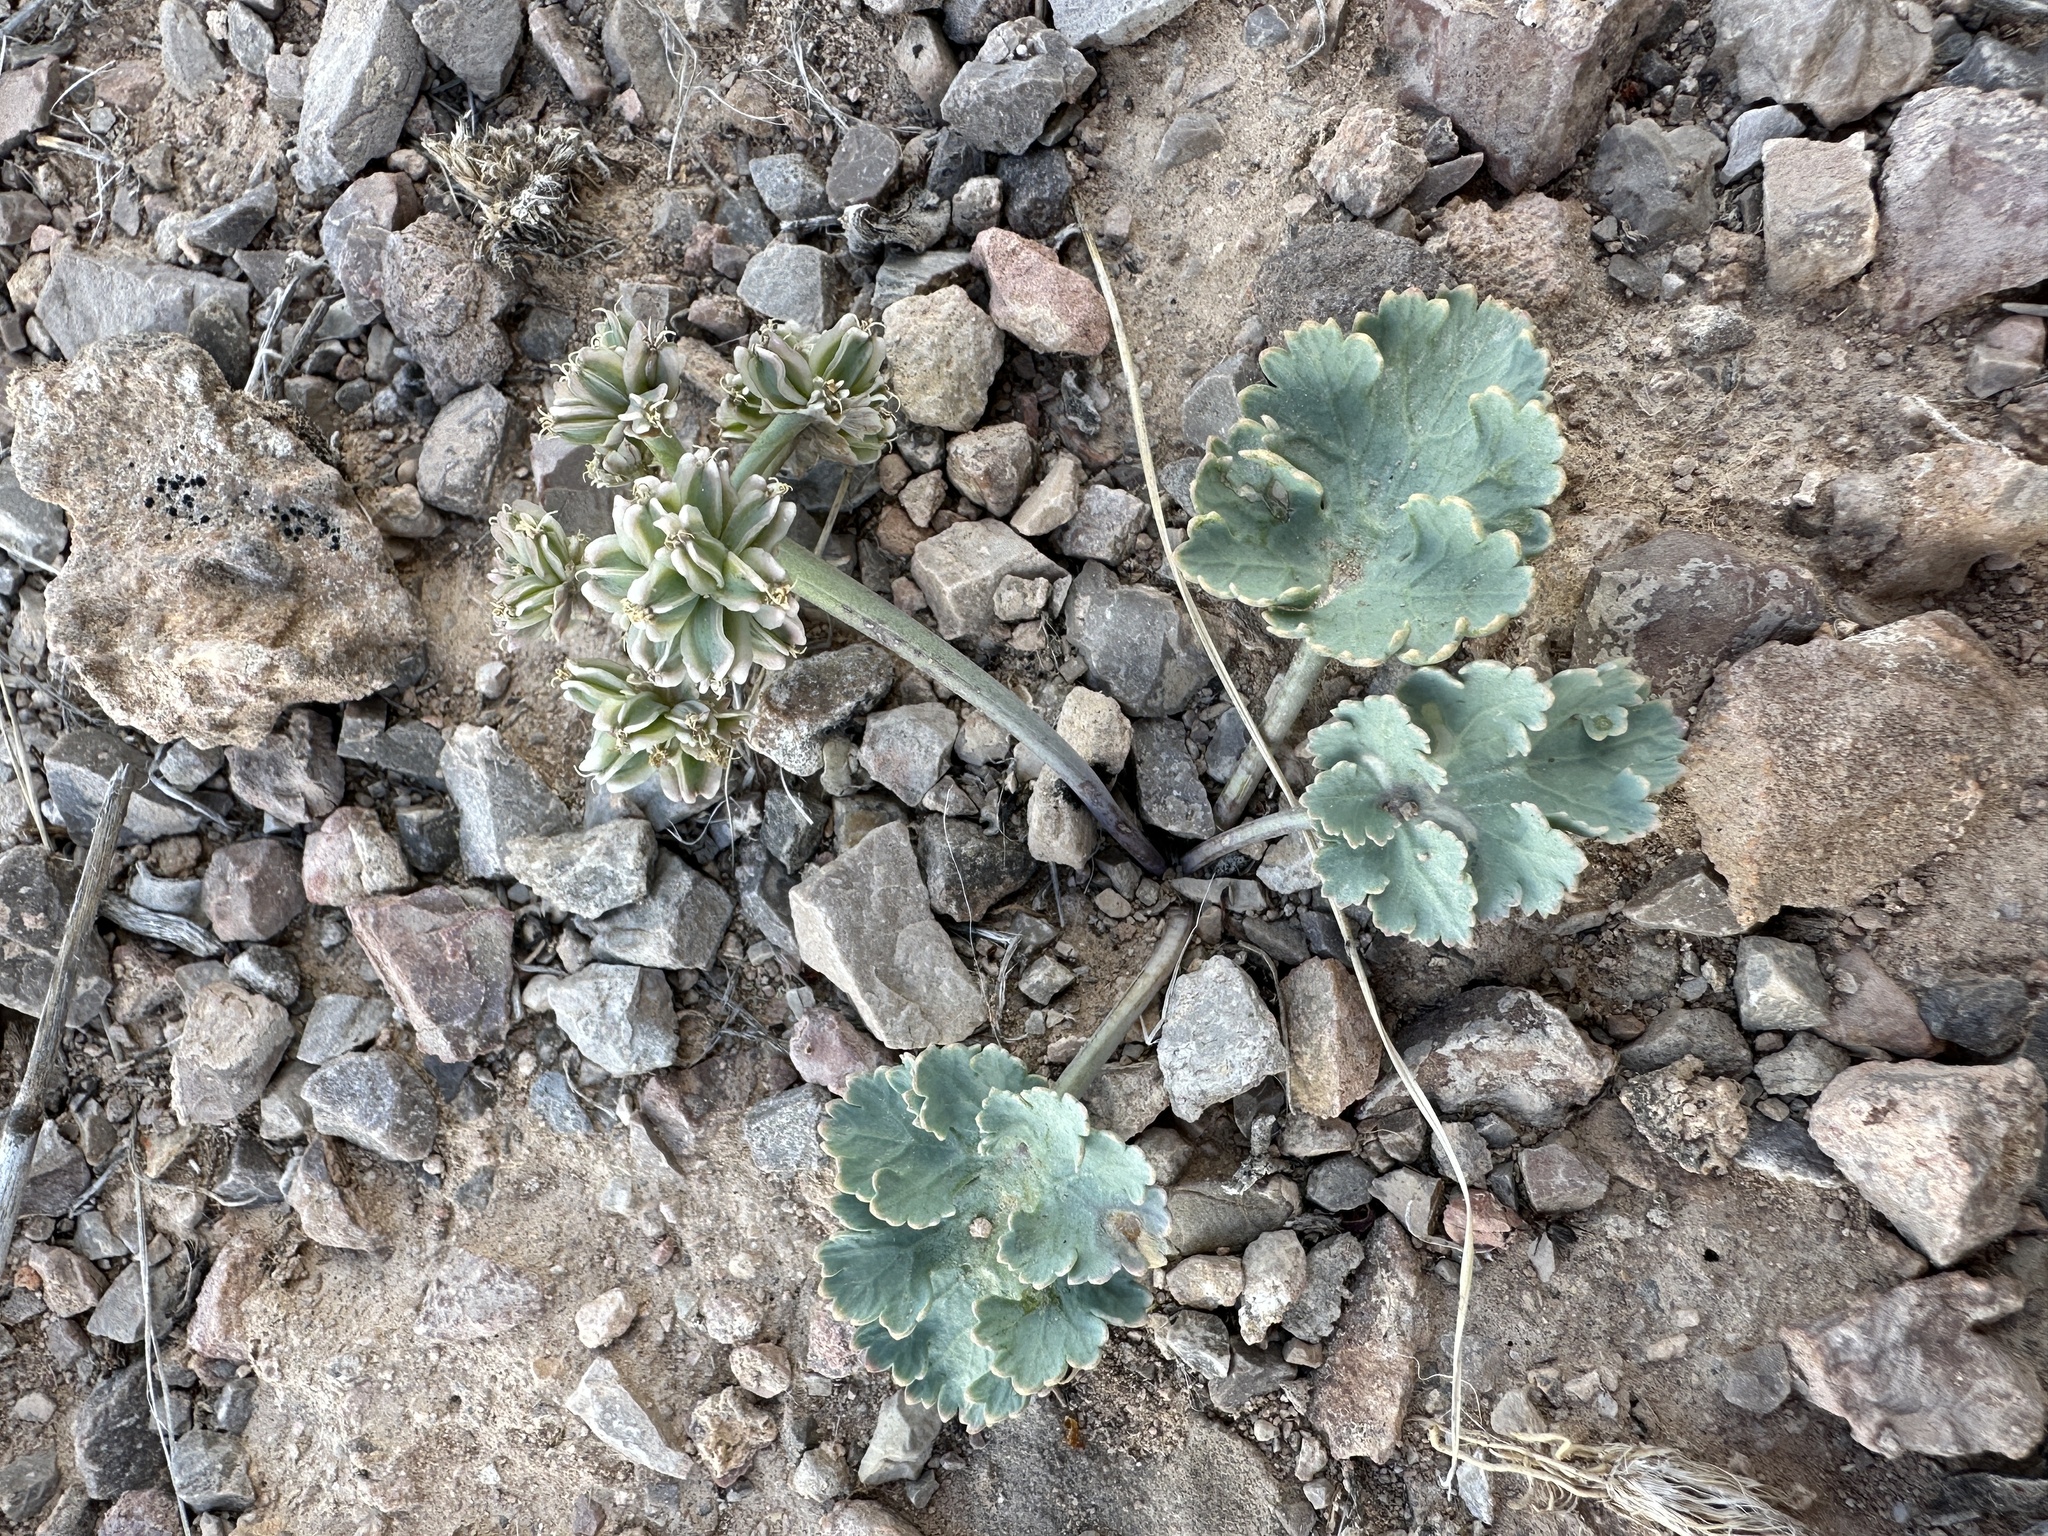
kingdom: Plantae
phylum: Tracheophyta
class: Magnoliopsida
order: Apiales
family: Apiaceae
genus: Aulospermum
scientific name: Aulospermum basalticum
